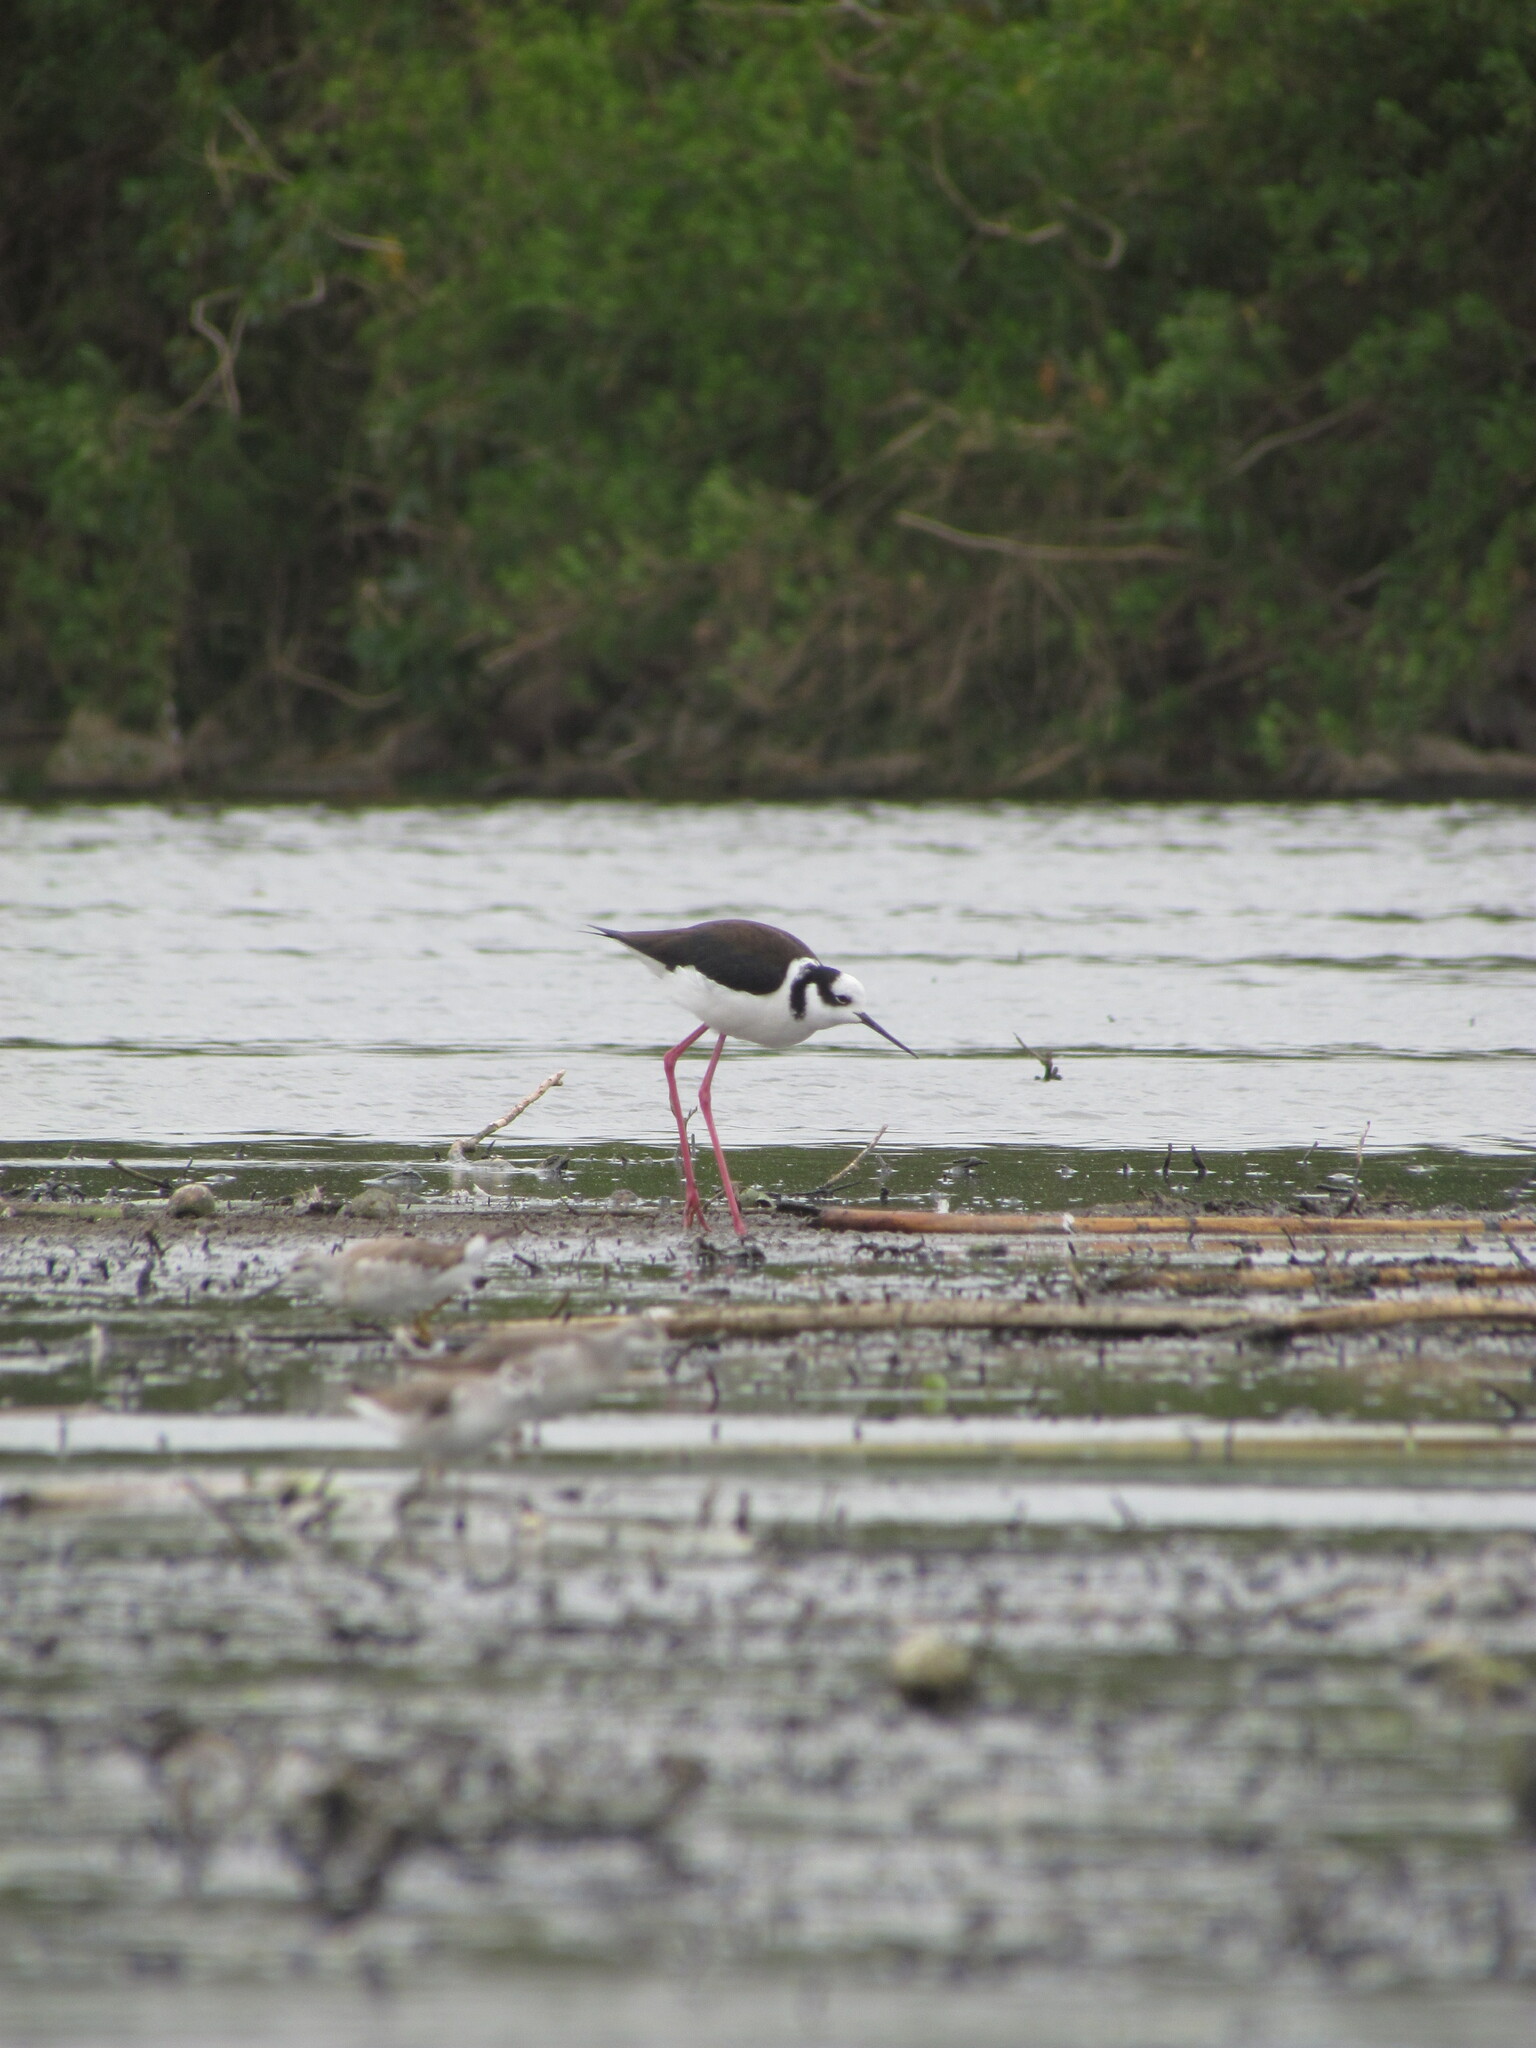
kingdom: Animalia
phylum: Chordata
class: Aves
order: Charadriiformes
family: Recurvirostridae
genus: Himantopus
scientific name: Himantopus mexicanus
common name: Black-necked stilt
